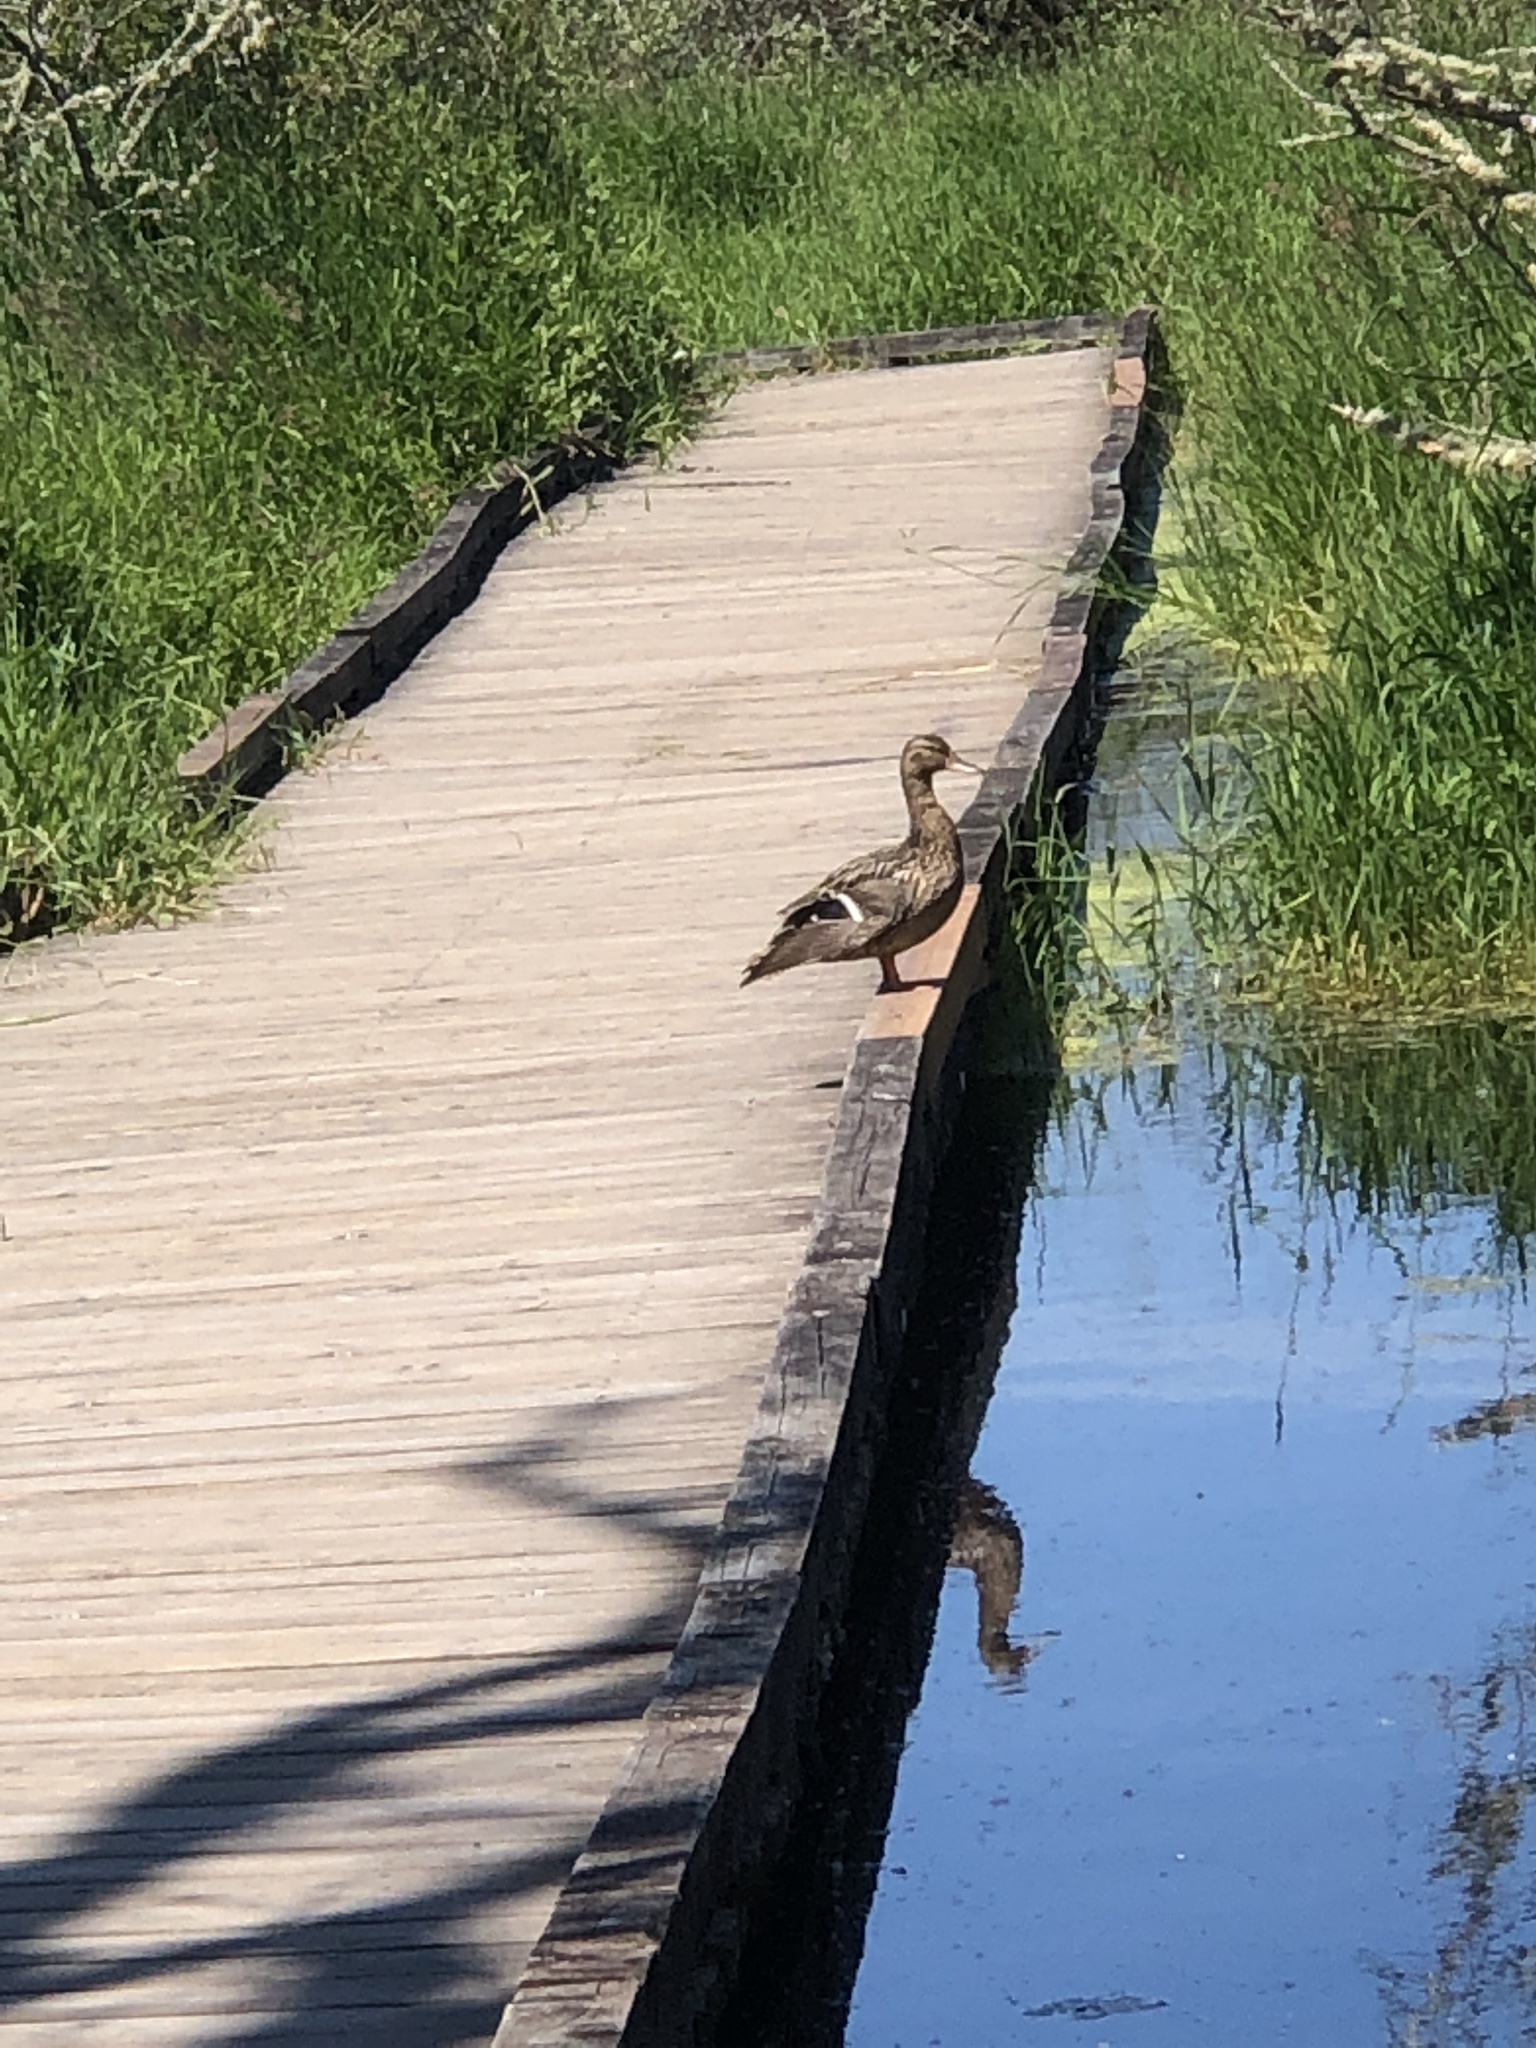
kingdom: Animalia
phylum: Chordata
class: Aves
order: Anseriformes
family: Anatidae
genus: Anas
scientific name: Anas platyrhynchos
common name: Mallard
